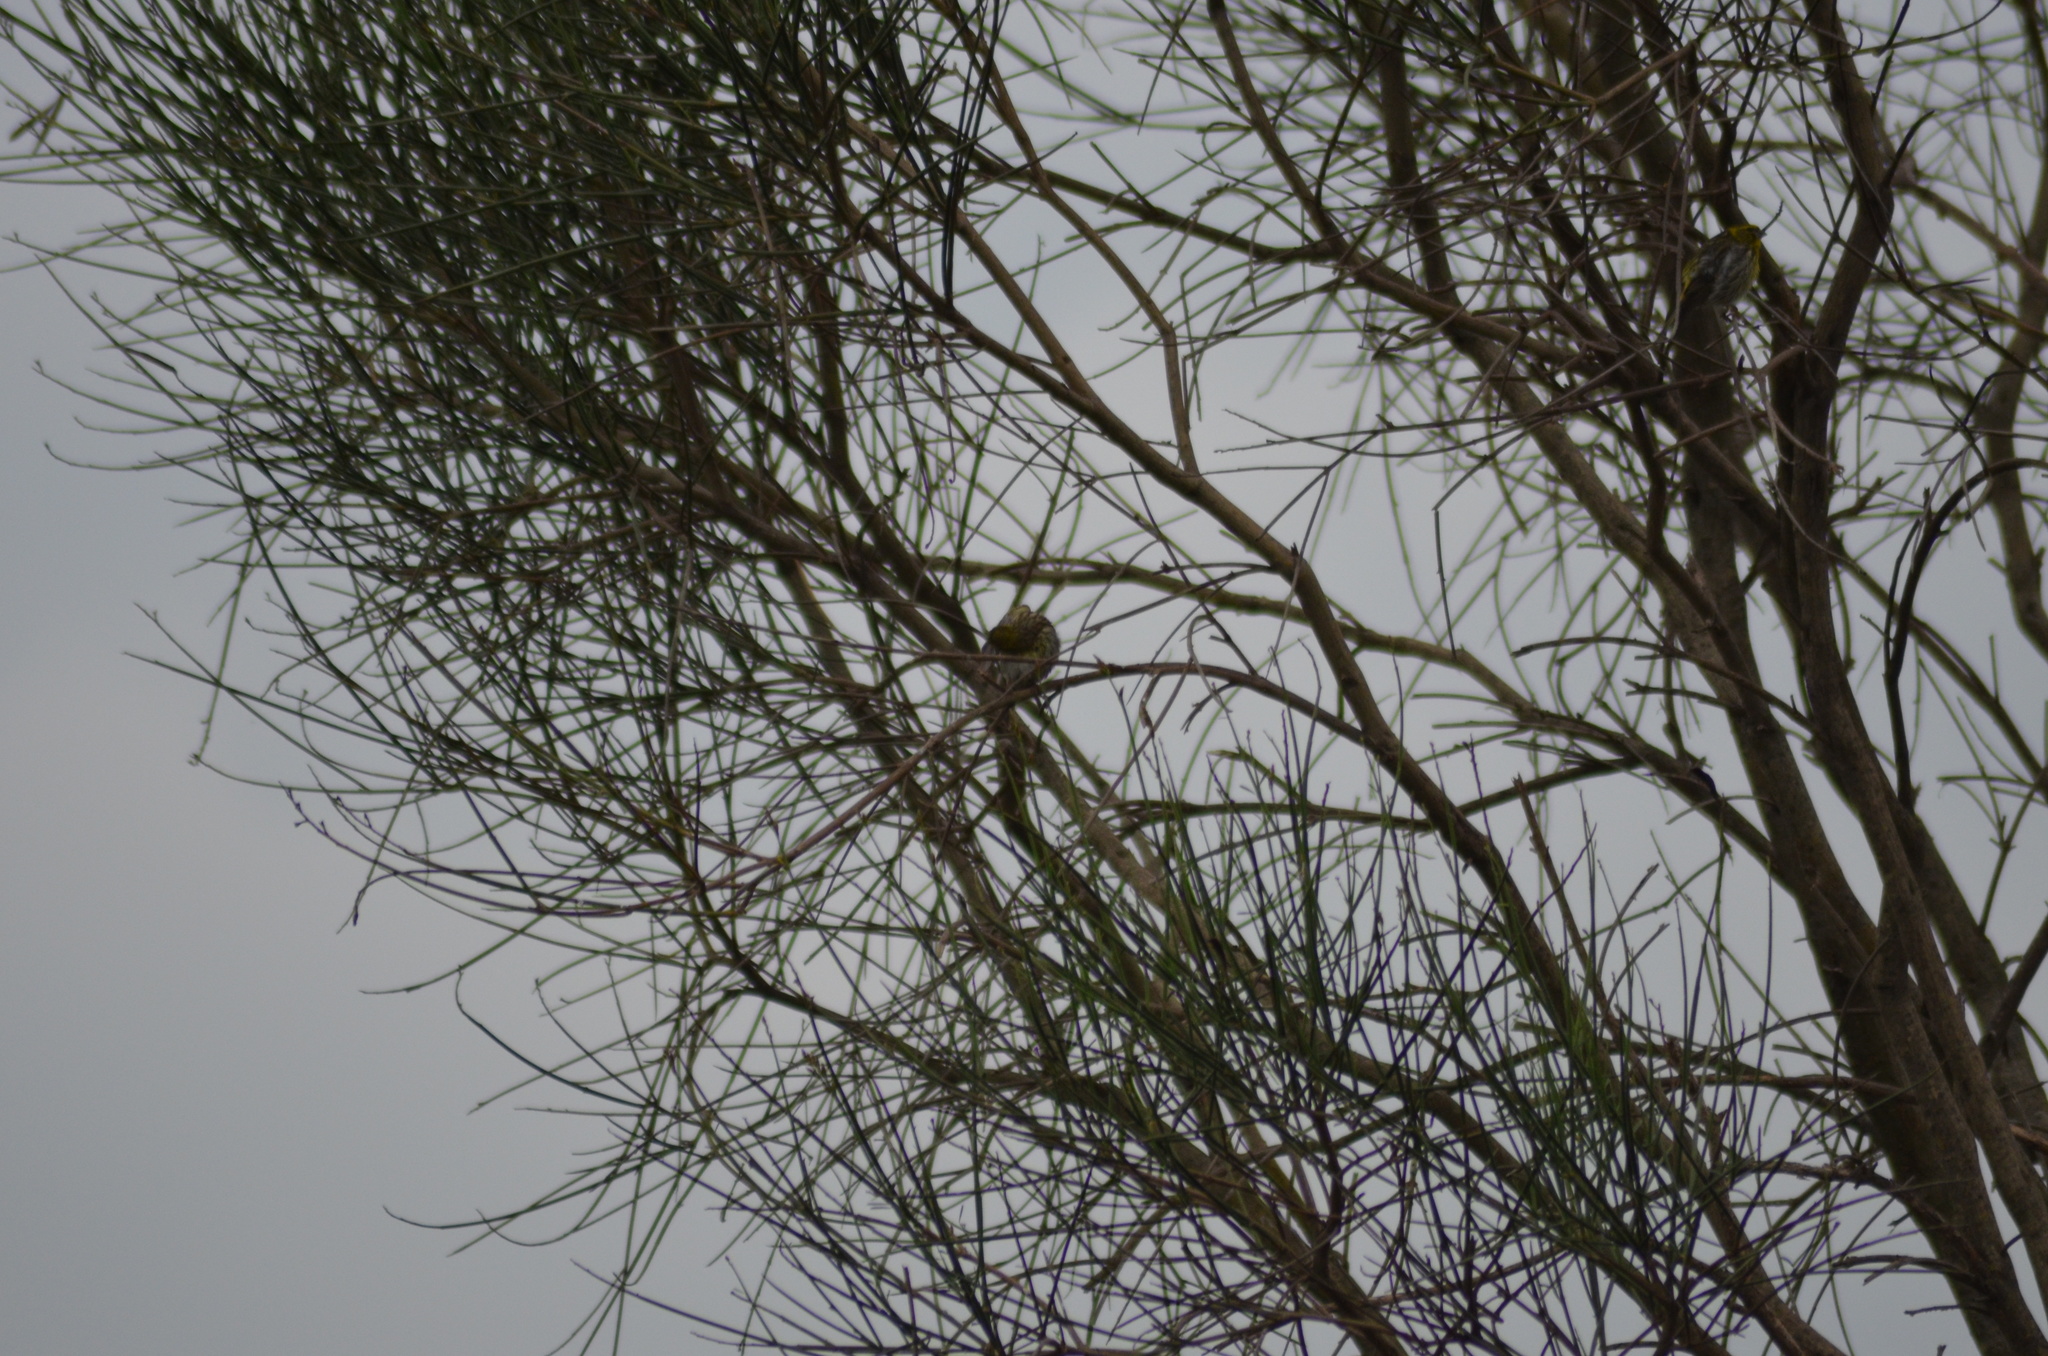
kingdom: Animalia
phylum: Chordata
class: Aves
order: Passeriformes
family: Fringillidae
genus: Serinus
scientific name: Serinus serinus
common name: European serin
